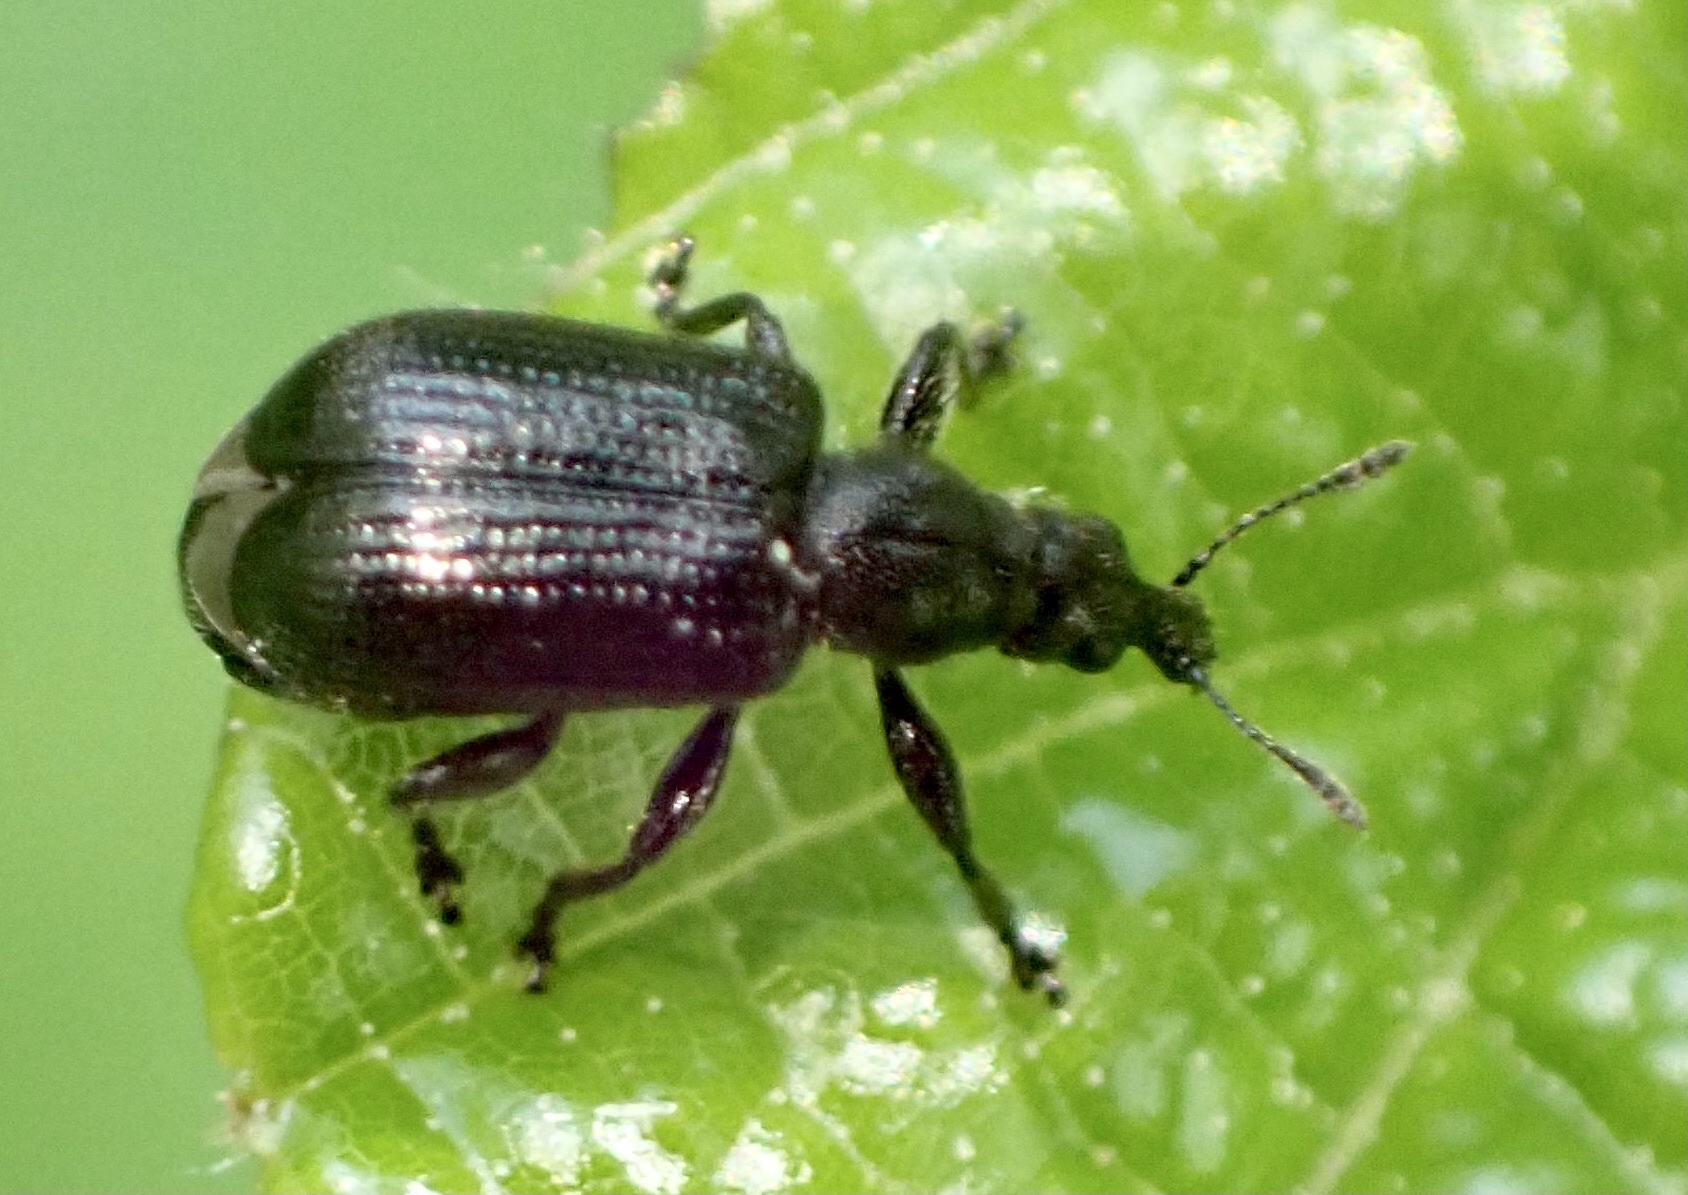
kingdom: Animalia
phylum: Arthropoda
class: Insecta
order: Coleoptera
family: Attelabidae
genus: Deporaus
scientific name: Deporaus betulae
